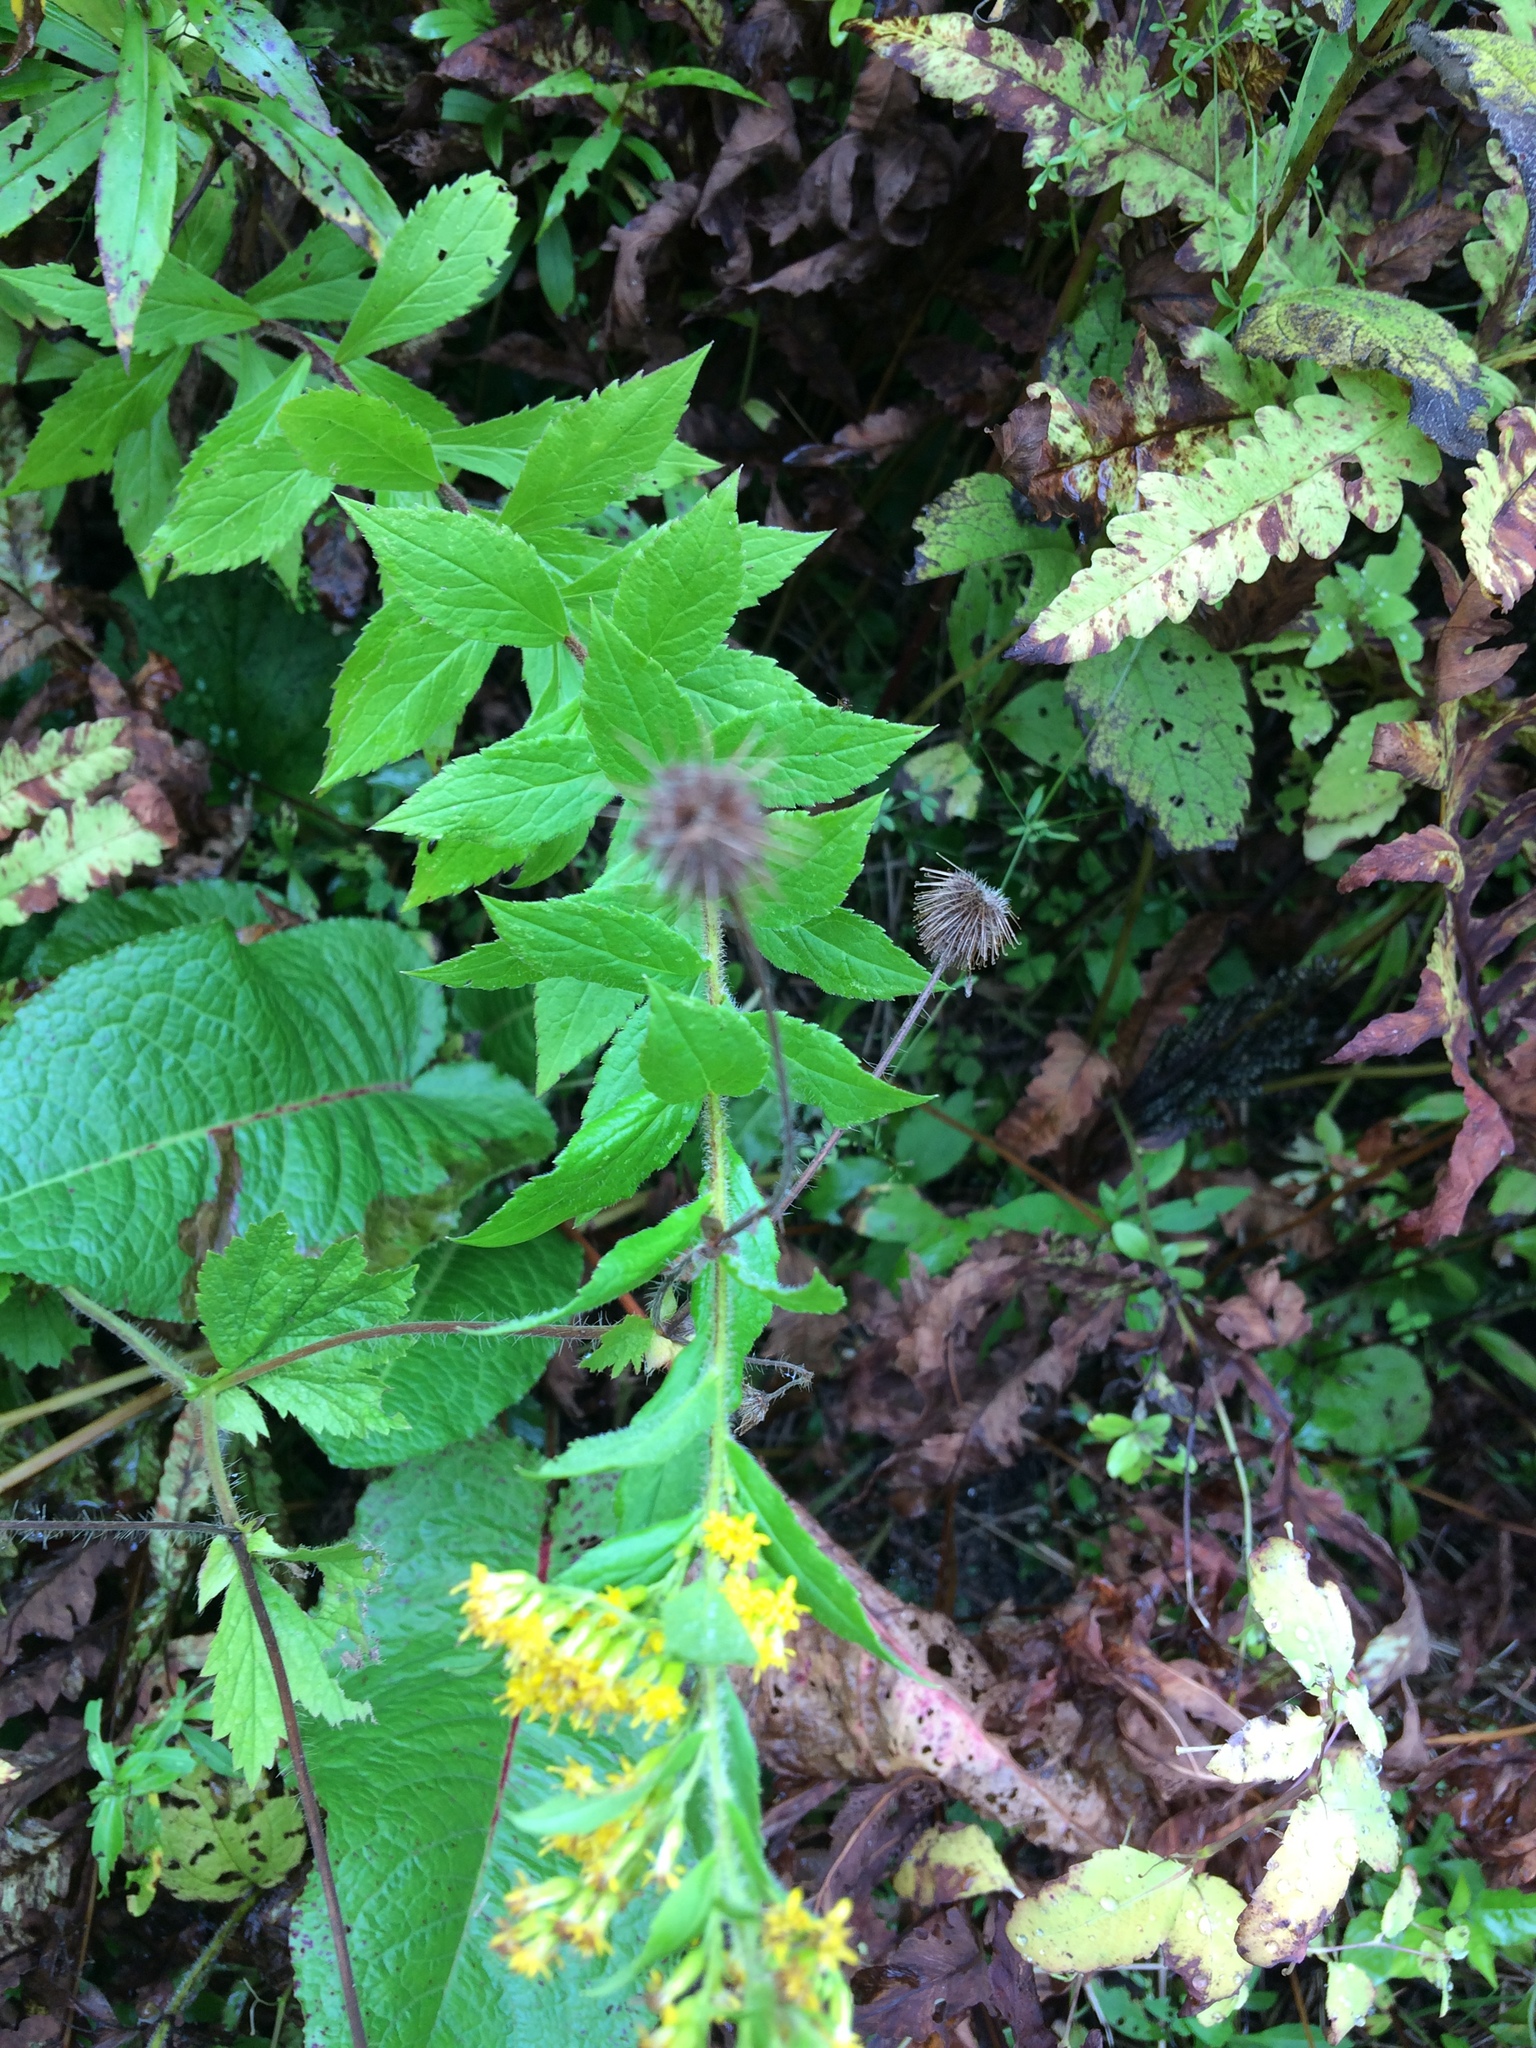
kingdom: Plantae
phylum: Tracheophyta
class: Magnoliopsida
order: Asterales
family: Asteraceae
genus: Solidago
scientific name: Solidago rugosa
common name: Rough-stemmed goldenrod
